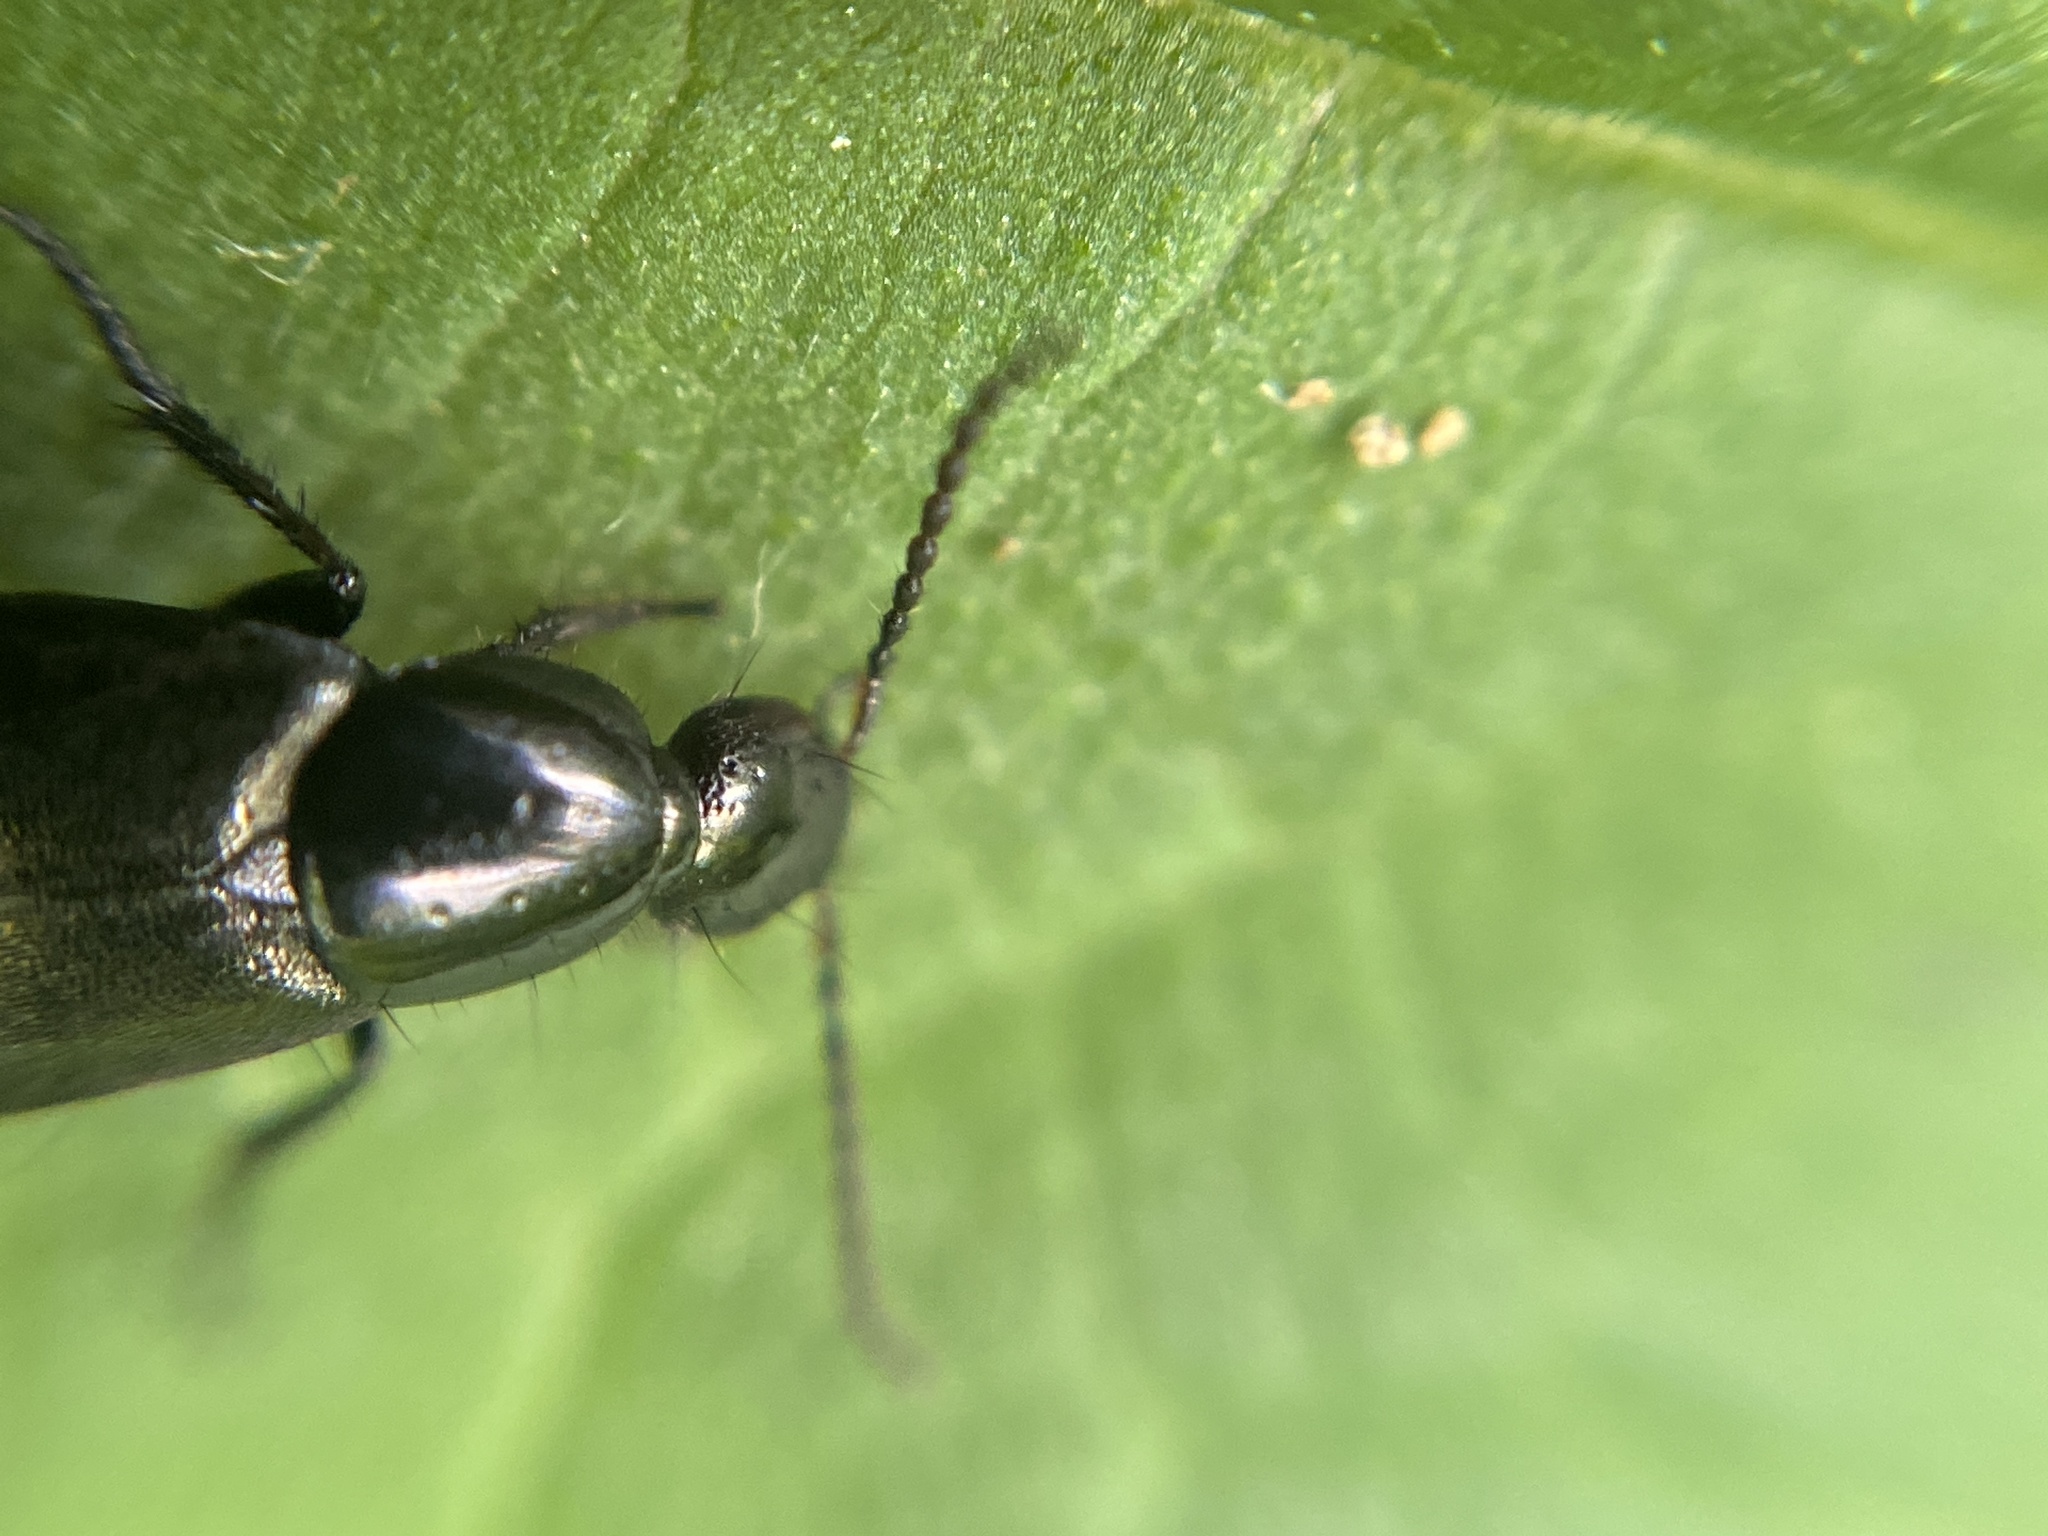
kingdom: Animalia
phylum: Arthropoda
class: Insecta
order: Coleoptera
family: Staphylinidae
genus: Philonthus
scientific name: Philonthus cognatus
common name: Staph beetle
